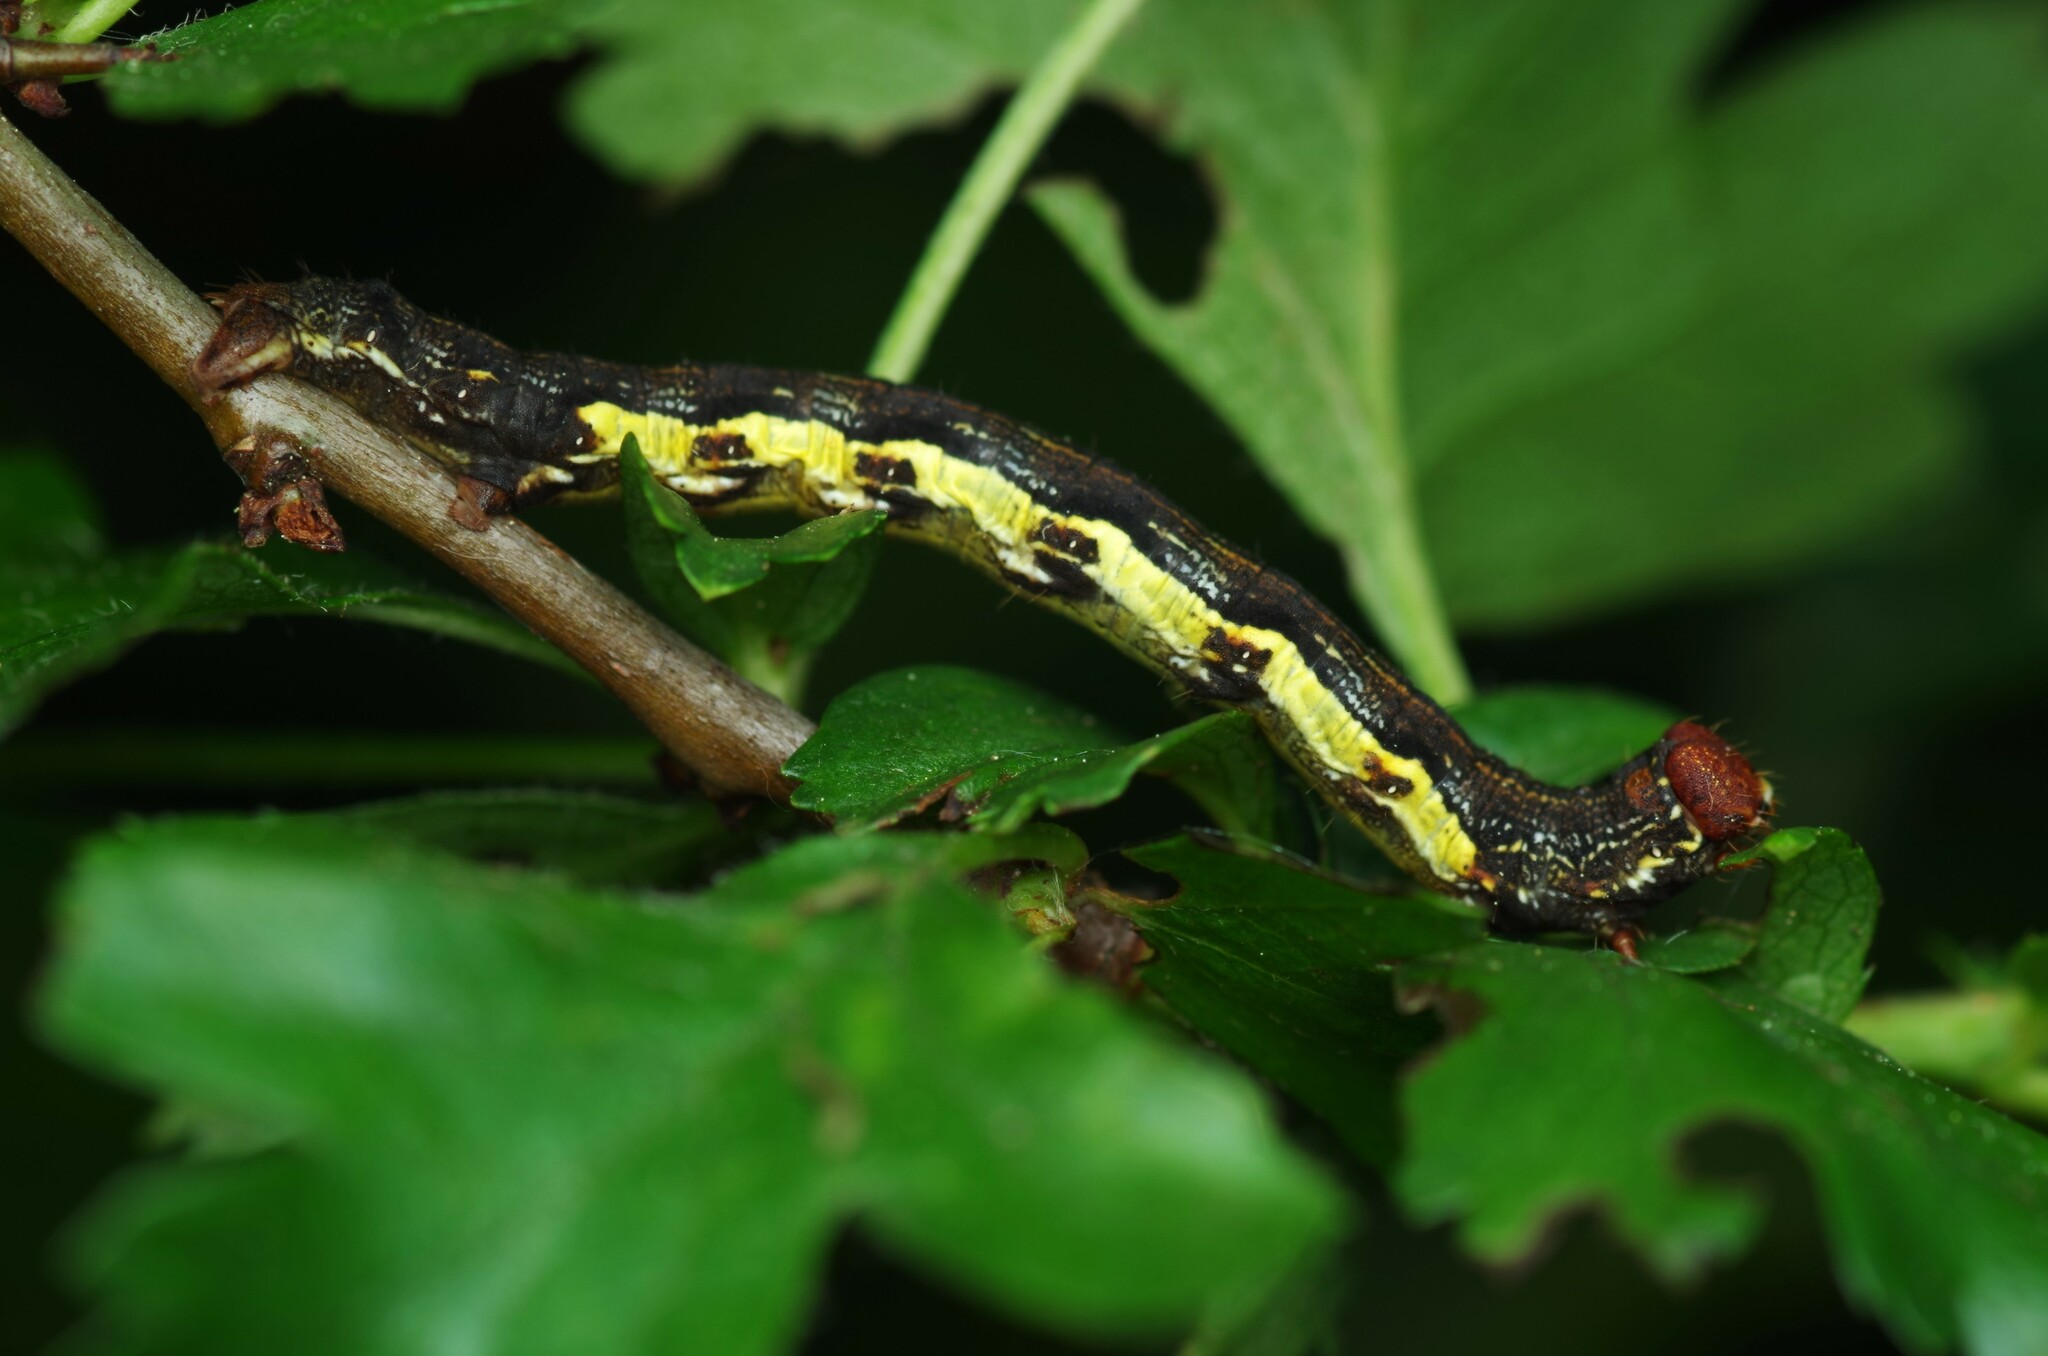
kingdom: Animalia
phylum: Arthropoda
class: Insecta
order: Lepidoptera
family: Geometridae
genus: Erannis
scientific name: Erannis defoliaria
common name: Mottled umber
